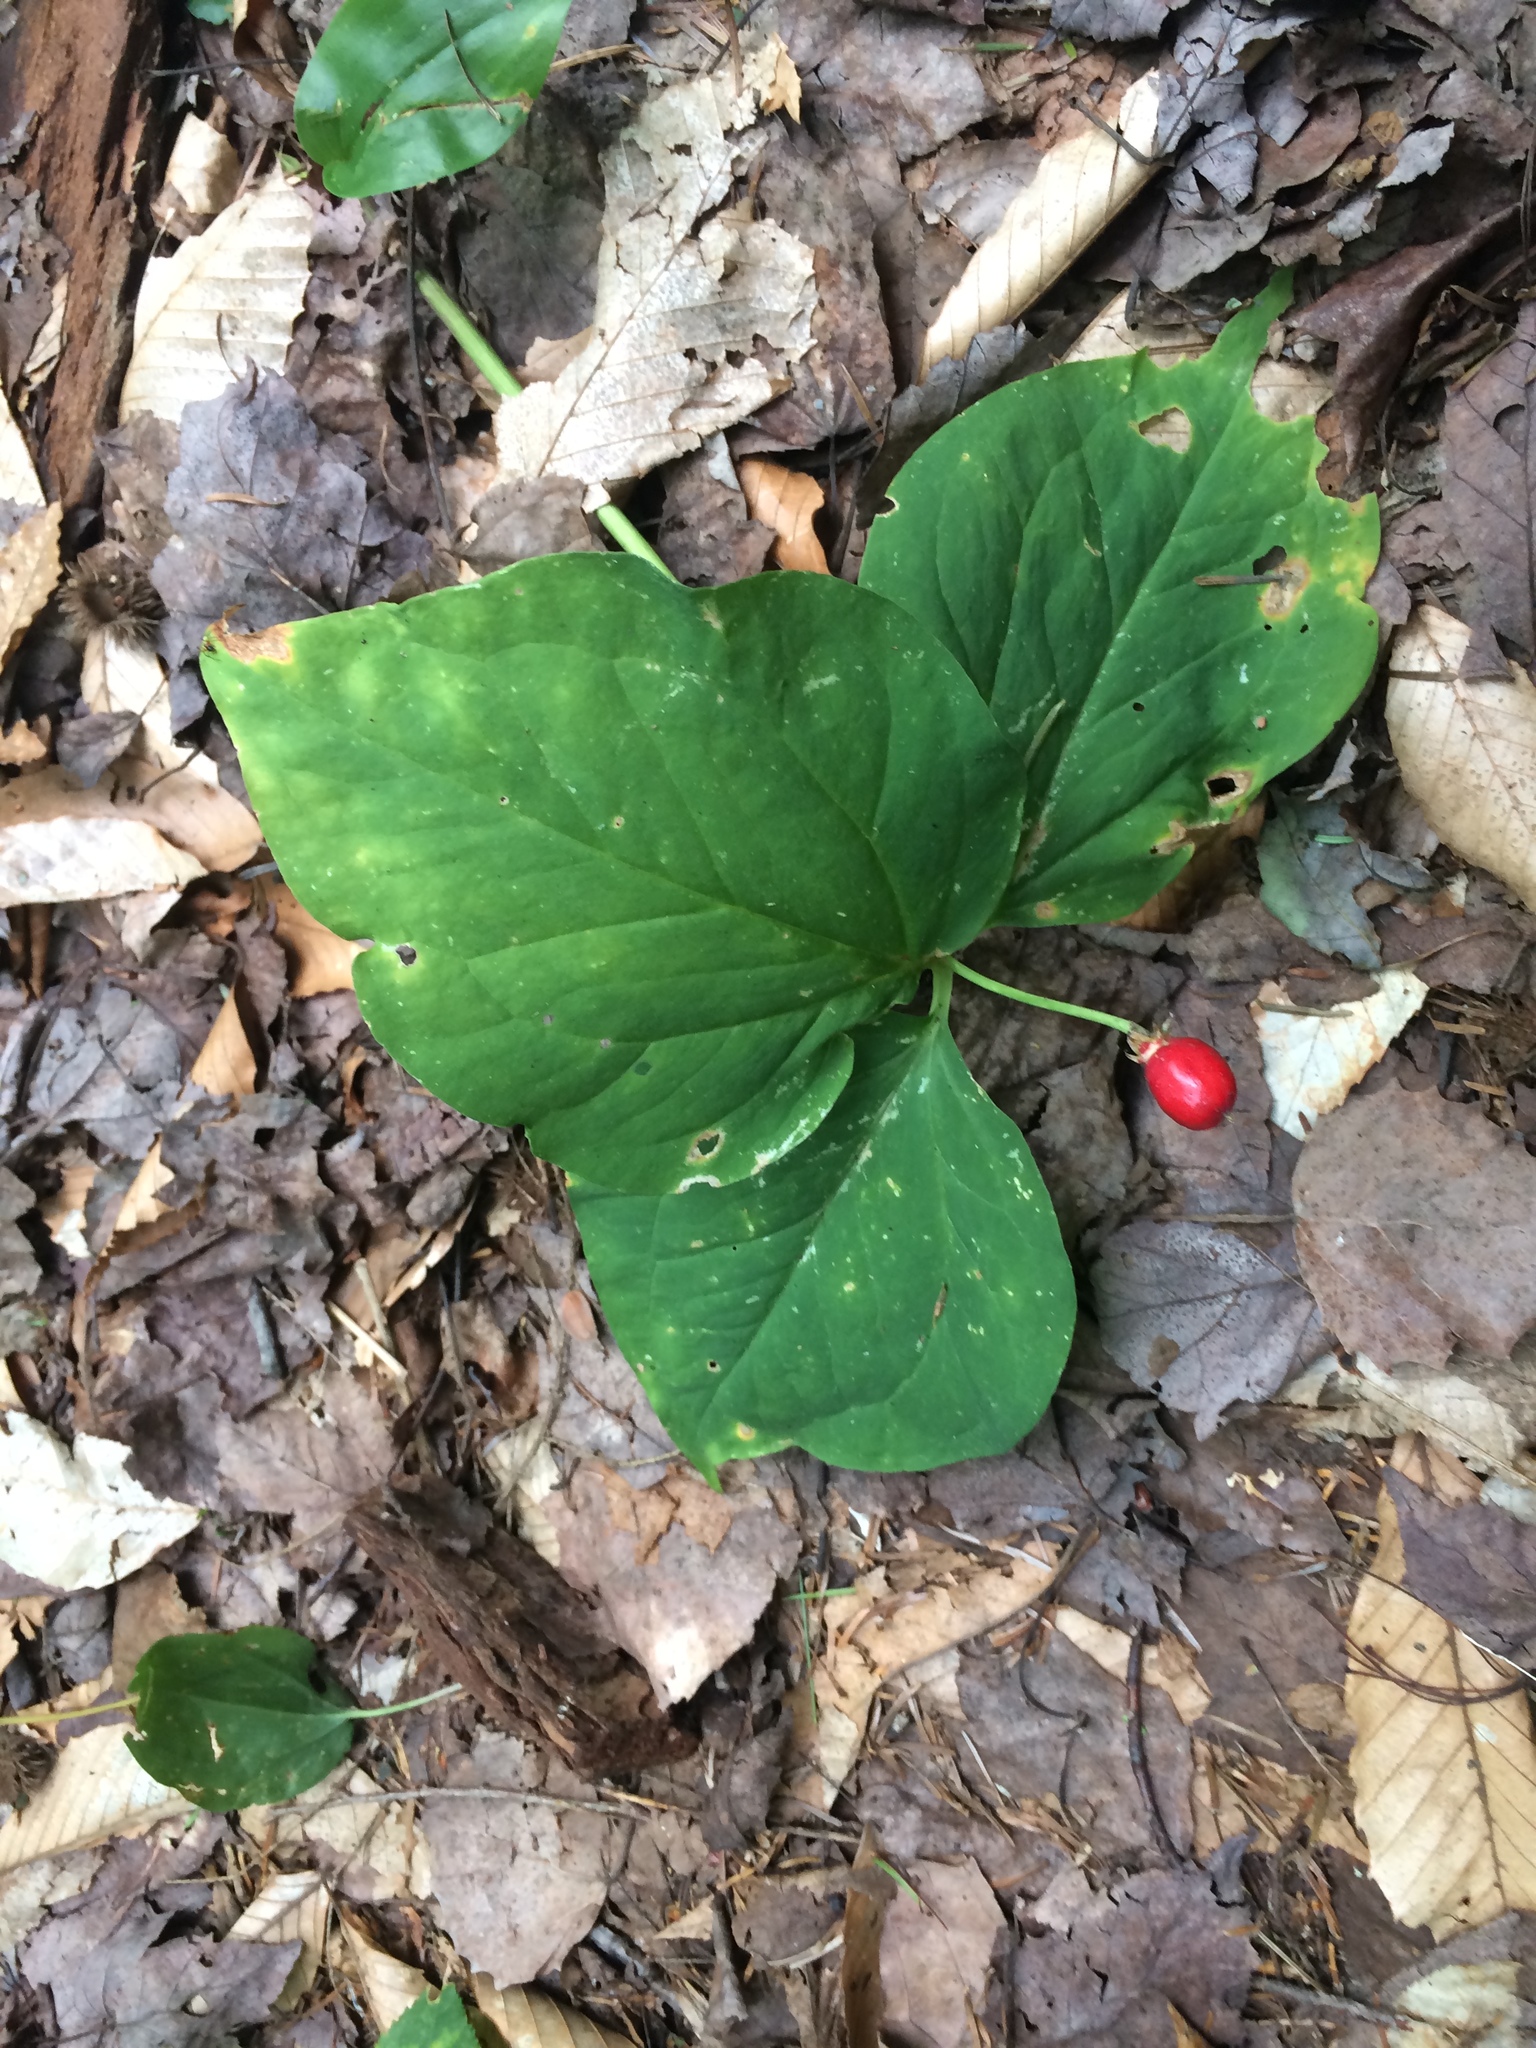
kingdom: Plantae
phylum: Tracheophyta
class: Liliopsida
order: Liliales
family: Melanthiaceae
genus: Trillium
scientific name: Trillium undulatum
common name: Paint trillium
